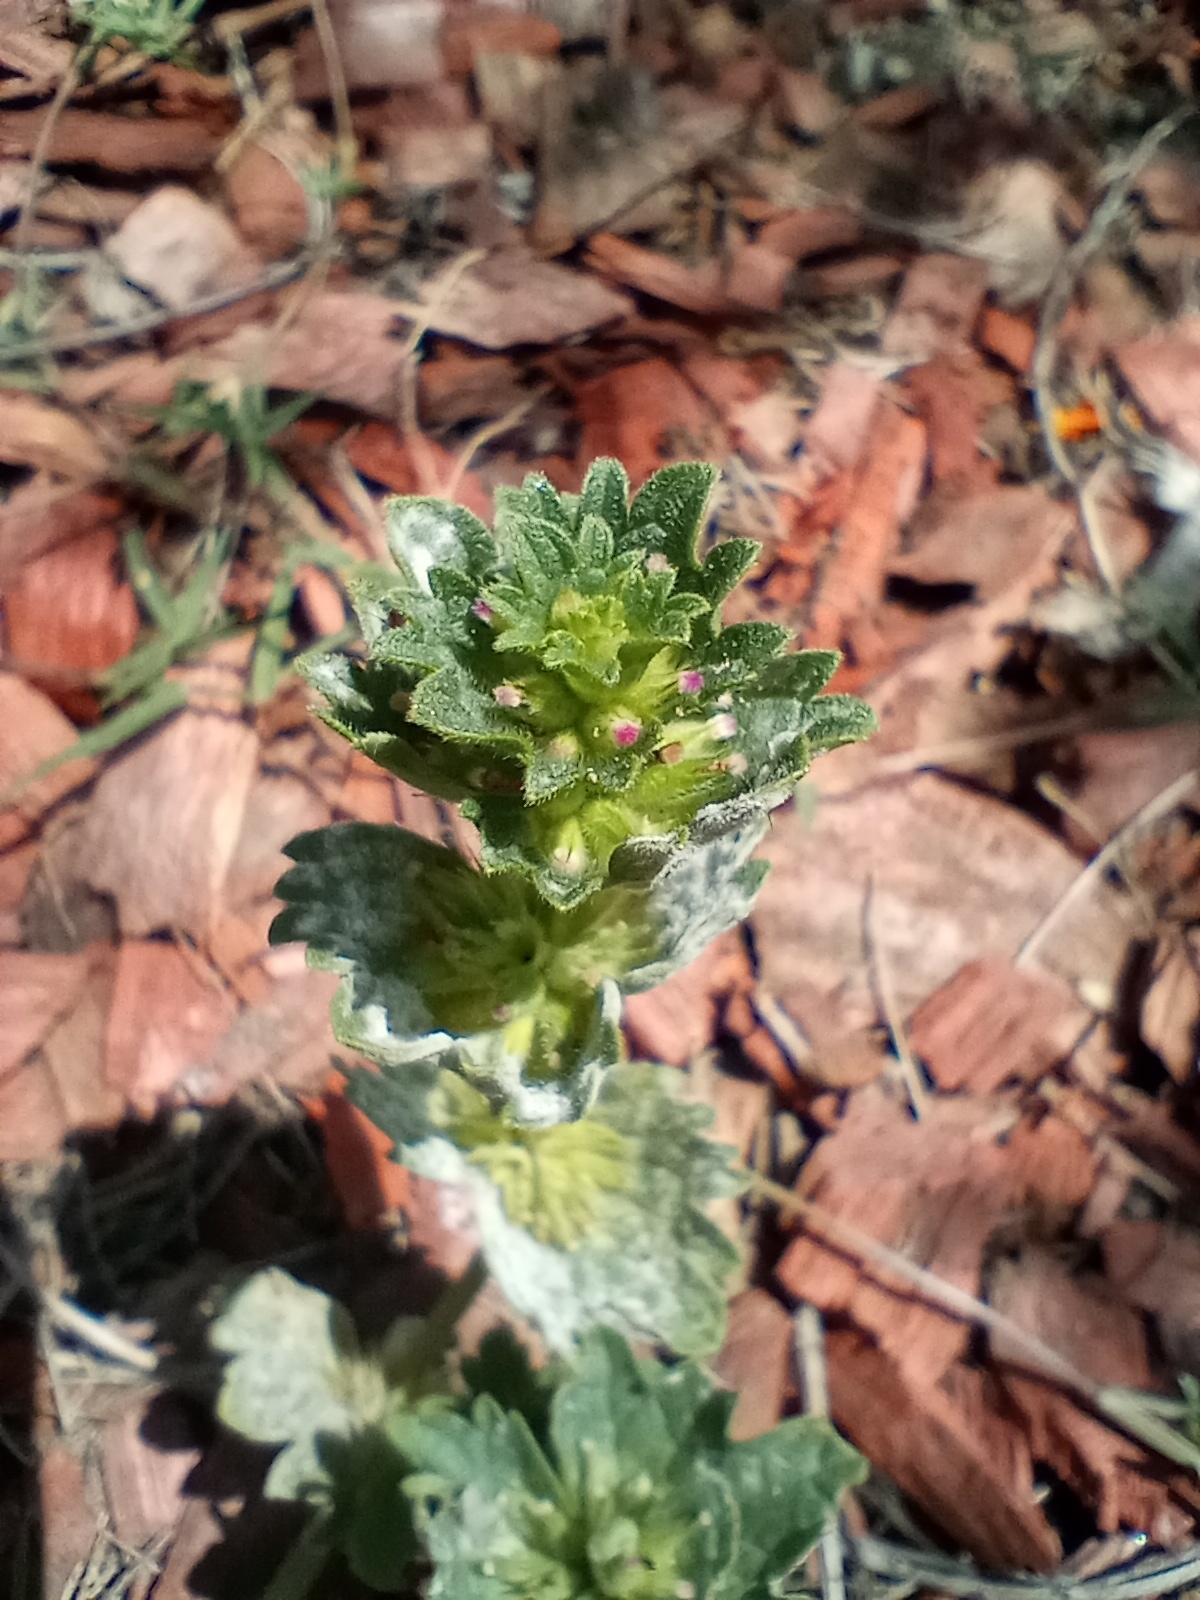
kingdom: Plantae
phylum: Tracheophyta
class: Magnoliopsida
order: Lamiales
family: Lamiaceae
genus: Lamium
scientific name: Lamium amplexicaule
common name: Henbit dead-nettle
